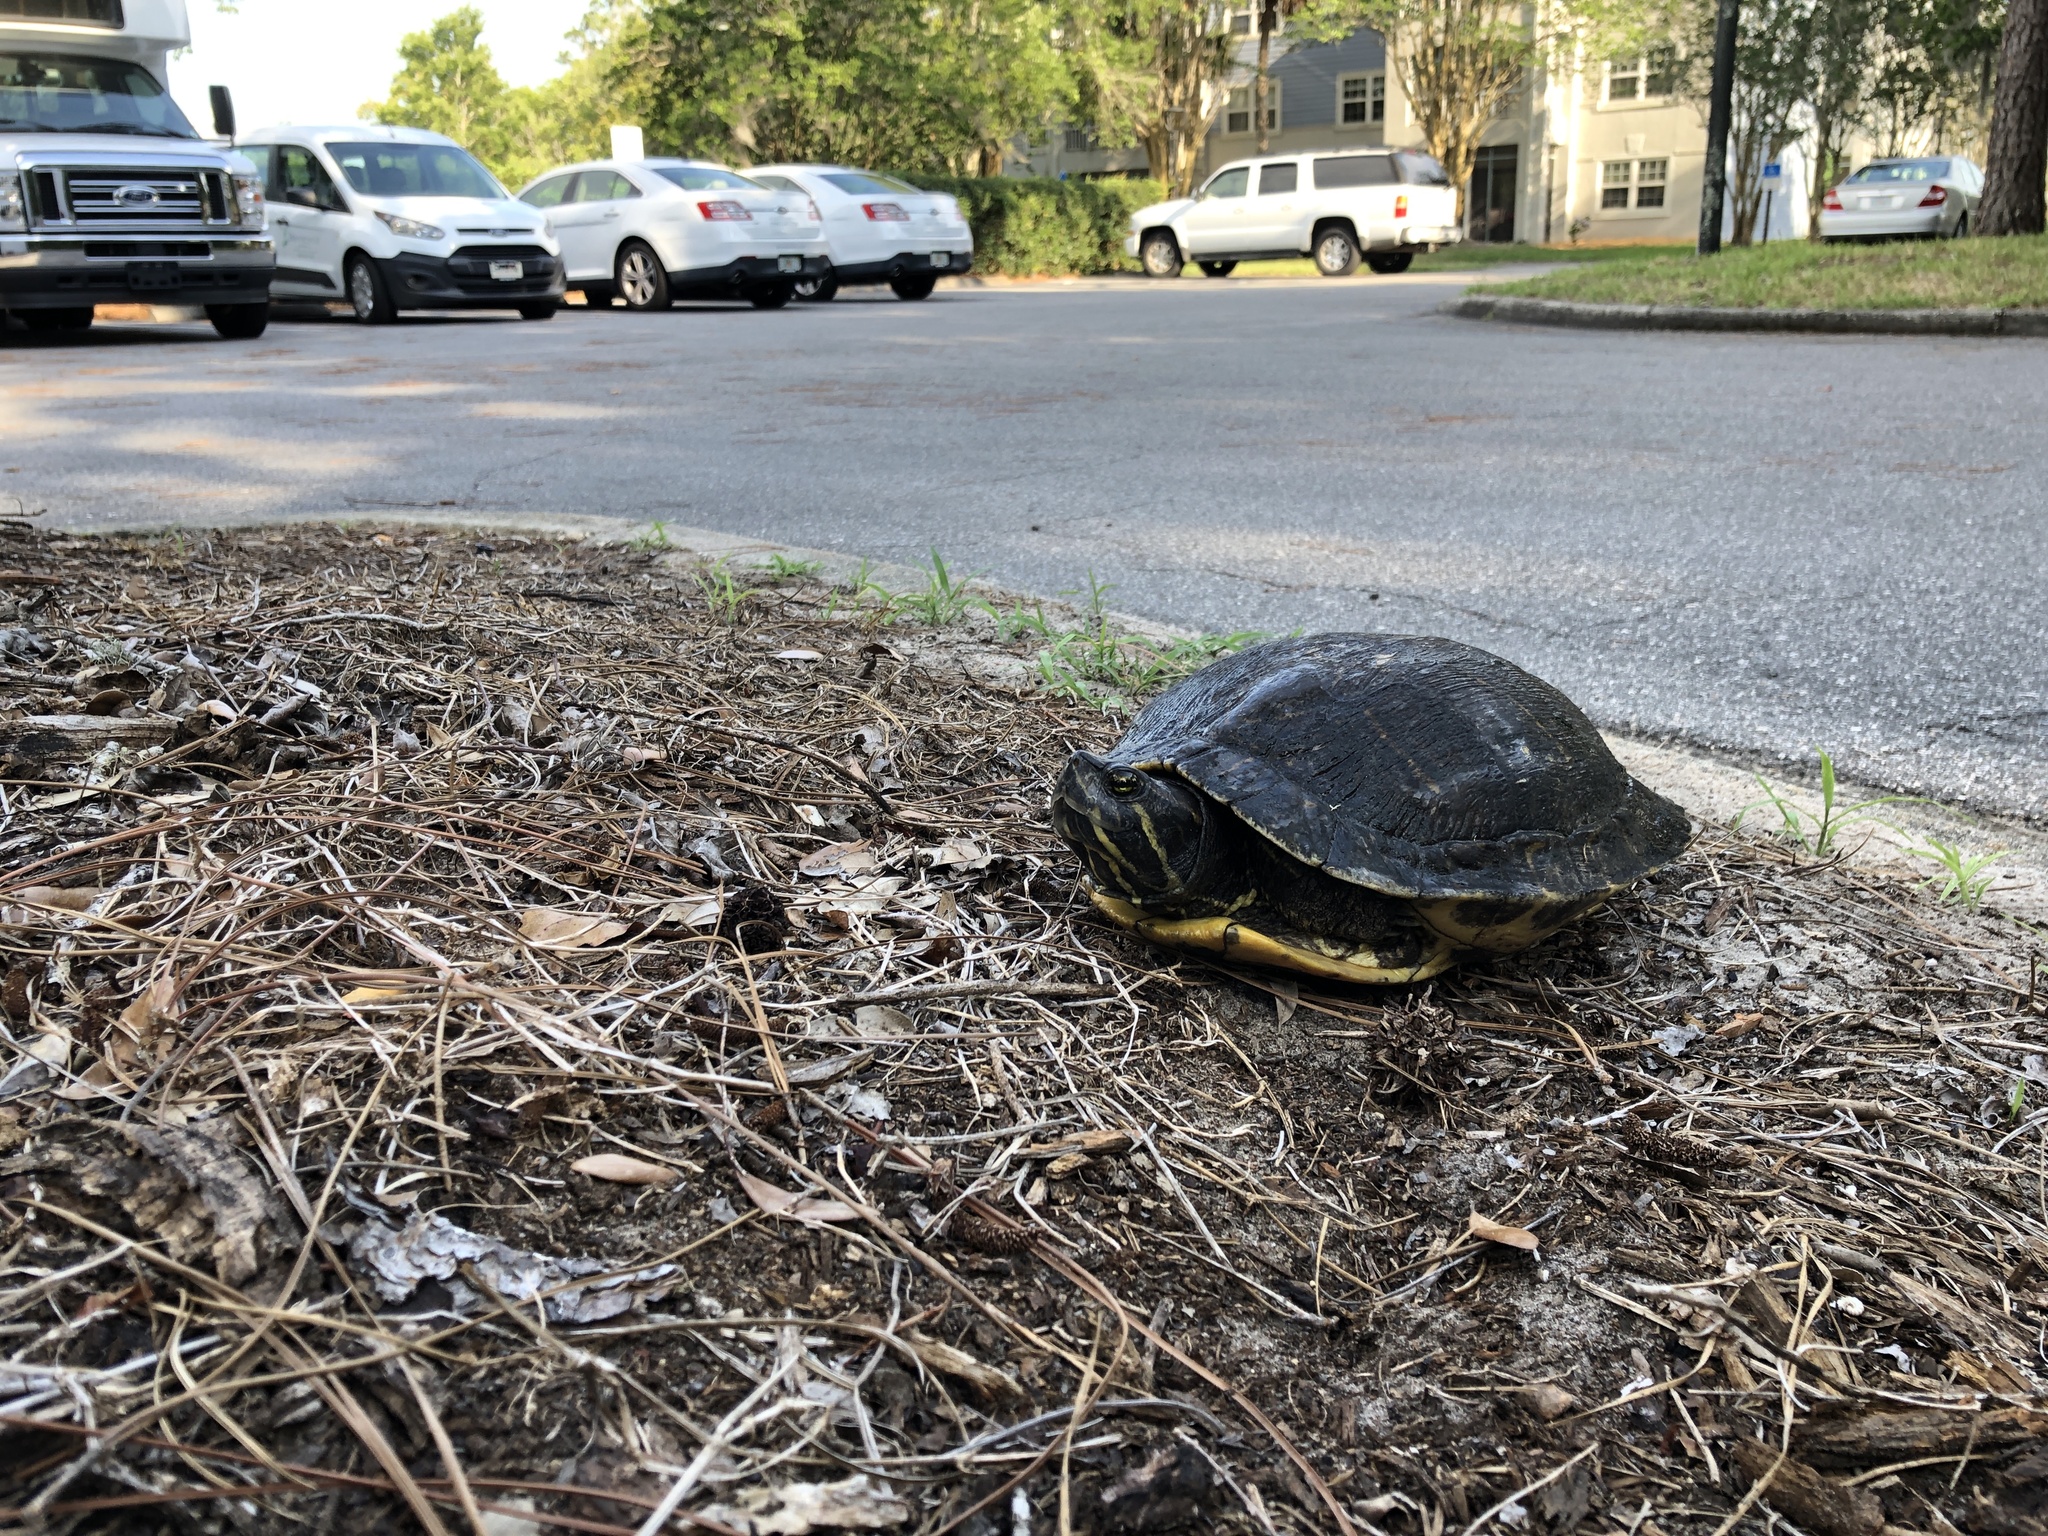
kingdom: Animalia
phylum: Chordata
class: Testudines
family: Emydidae
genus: Trachemys
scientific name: Trachemys scripta
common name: Slider
